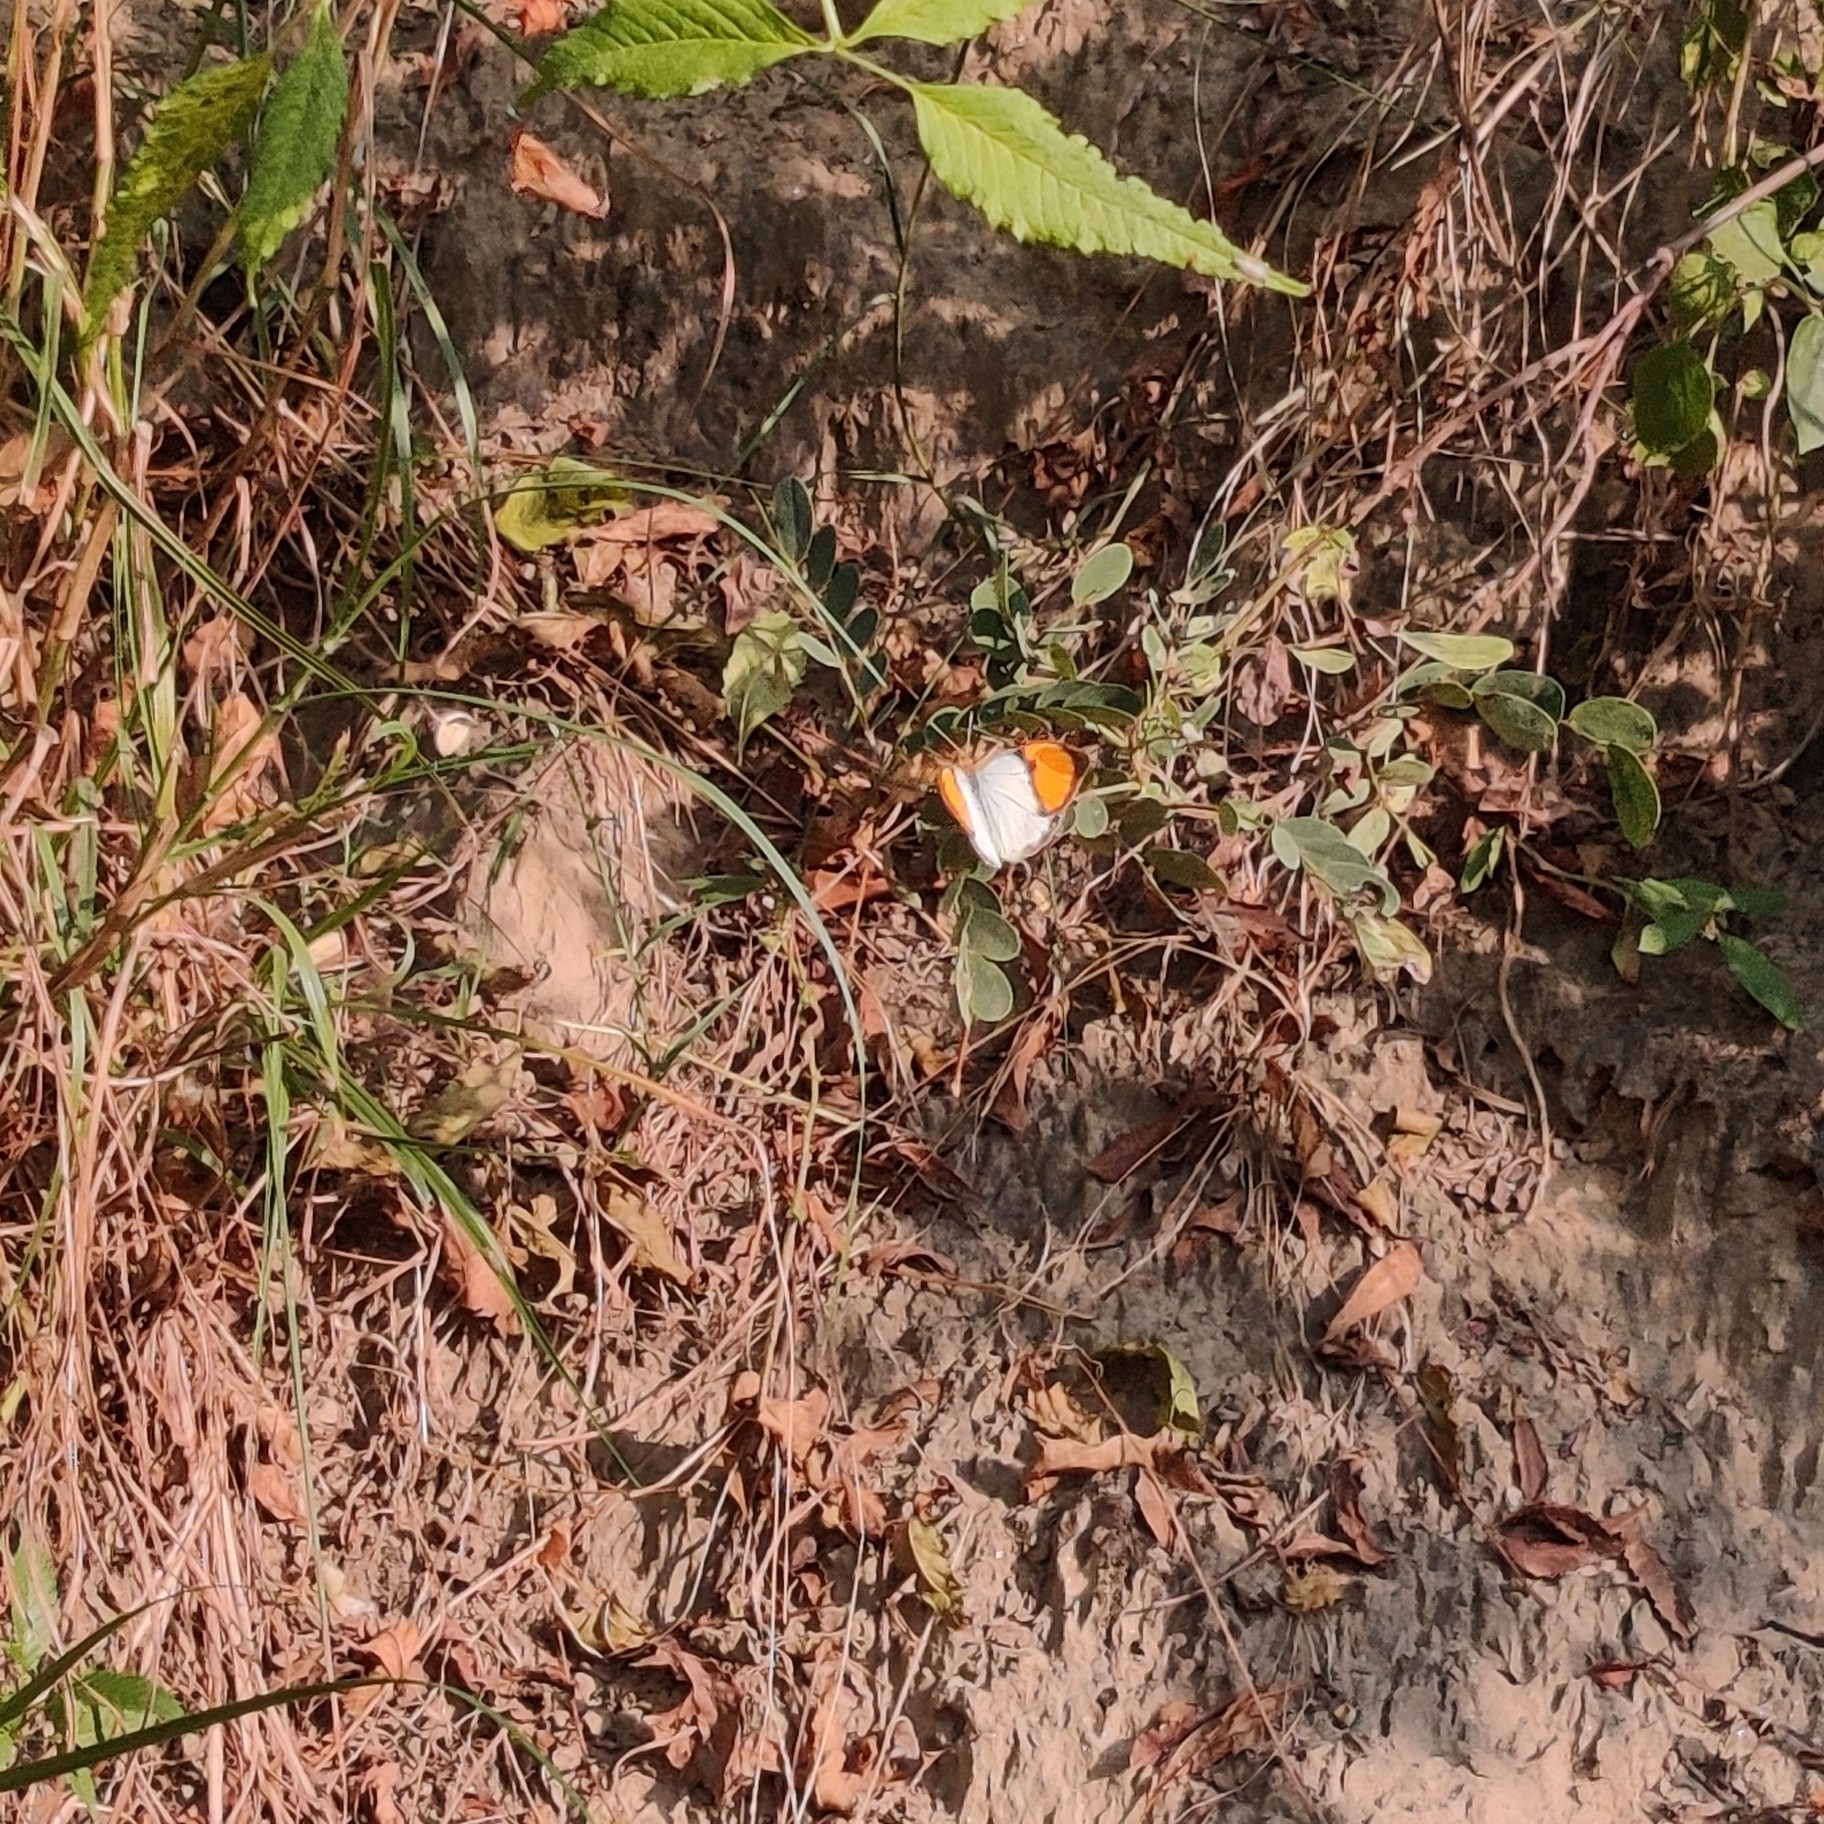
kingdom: Animalia
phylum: Arthropoda
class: Insecta
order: Lepidoptera
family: Pieridae
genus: Ixias
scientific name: Ixias marianne
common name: White orange tip
